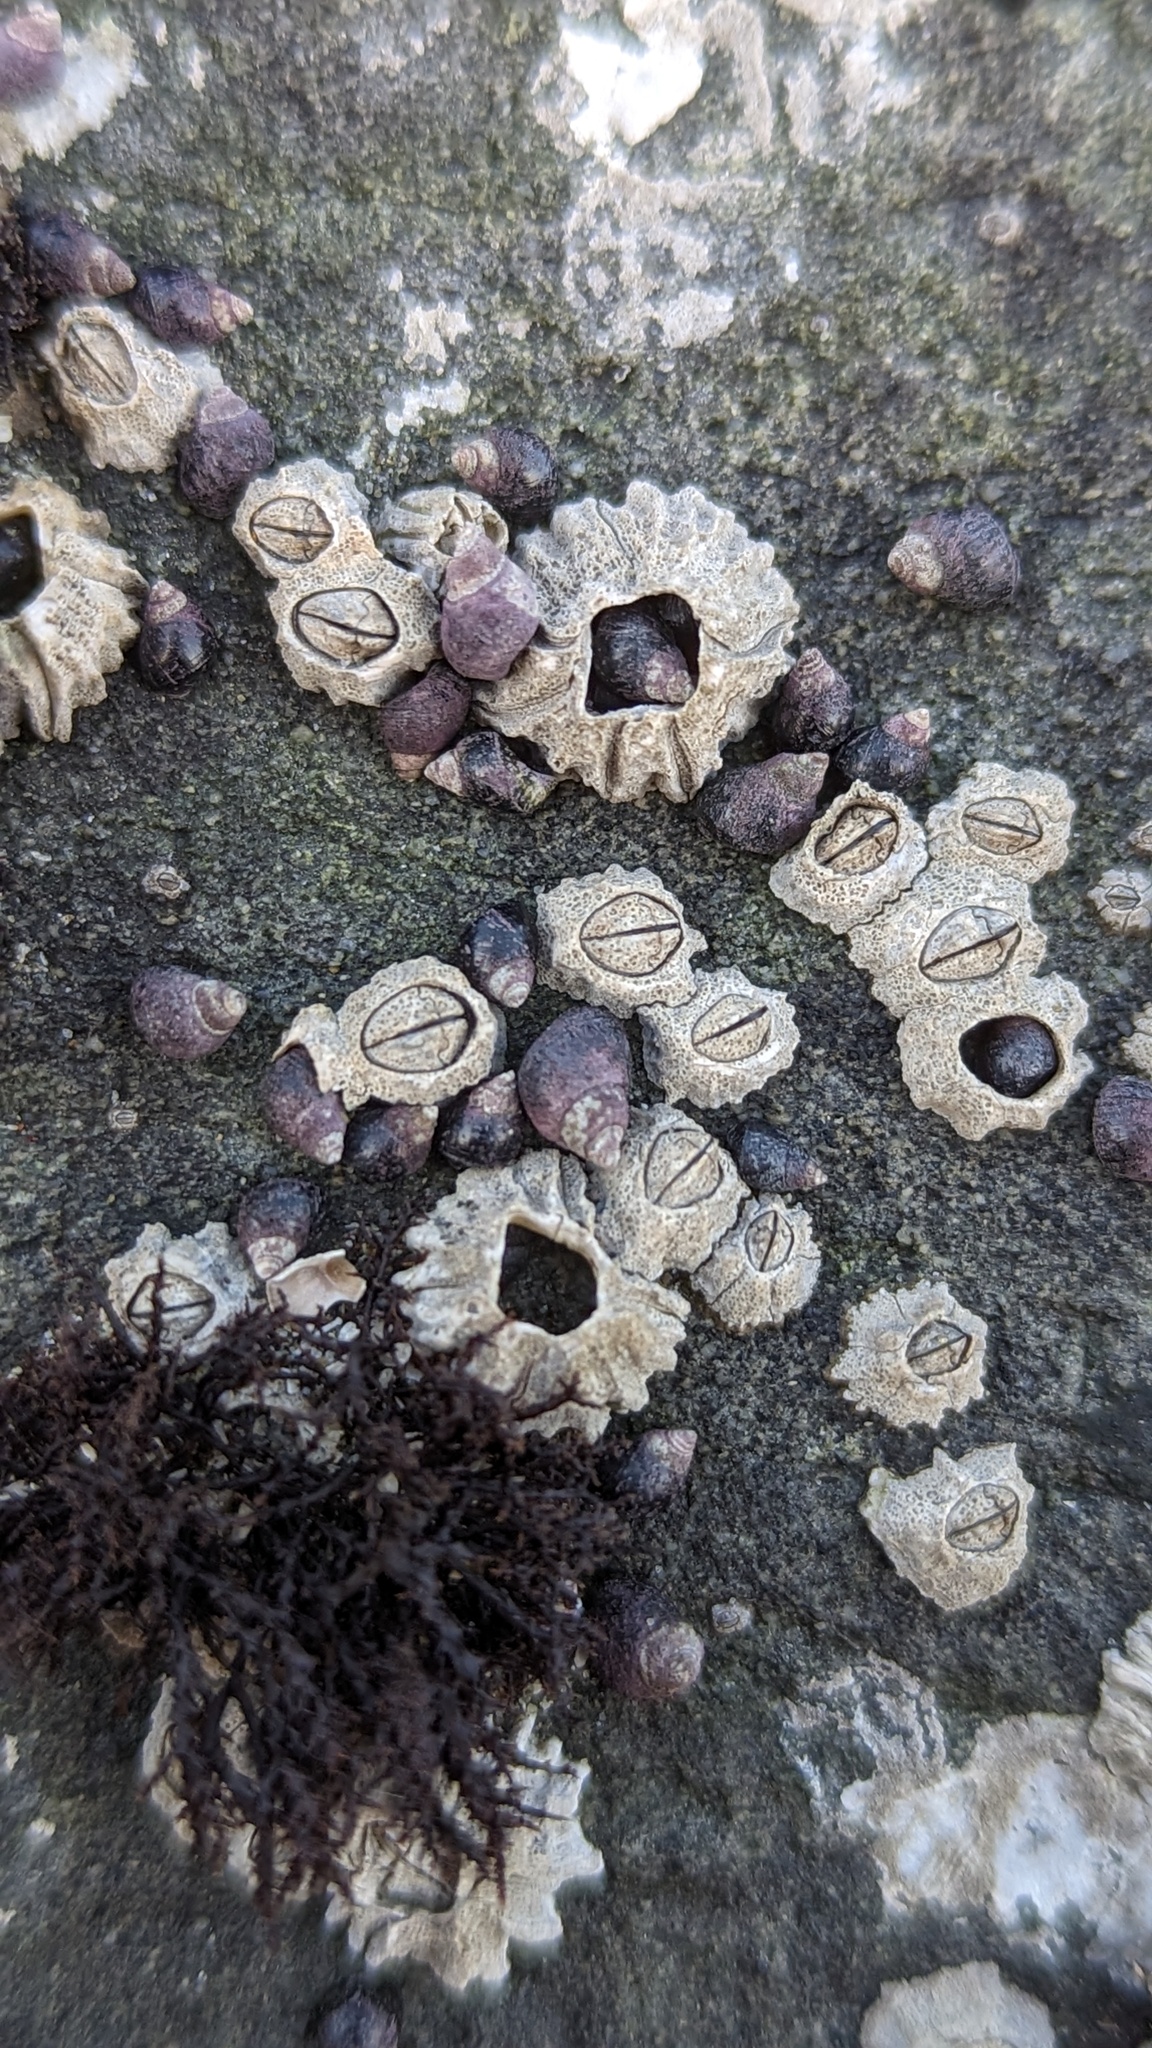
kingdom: Animalia
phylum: Arthropoda
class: Maxillopoda
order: Sessilia
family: Chthamalidae
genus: Chthamalus
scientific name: Chthamalus dalli
